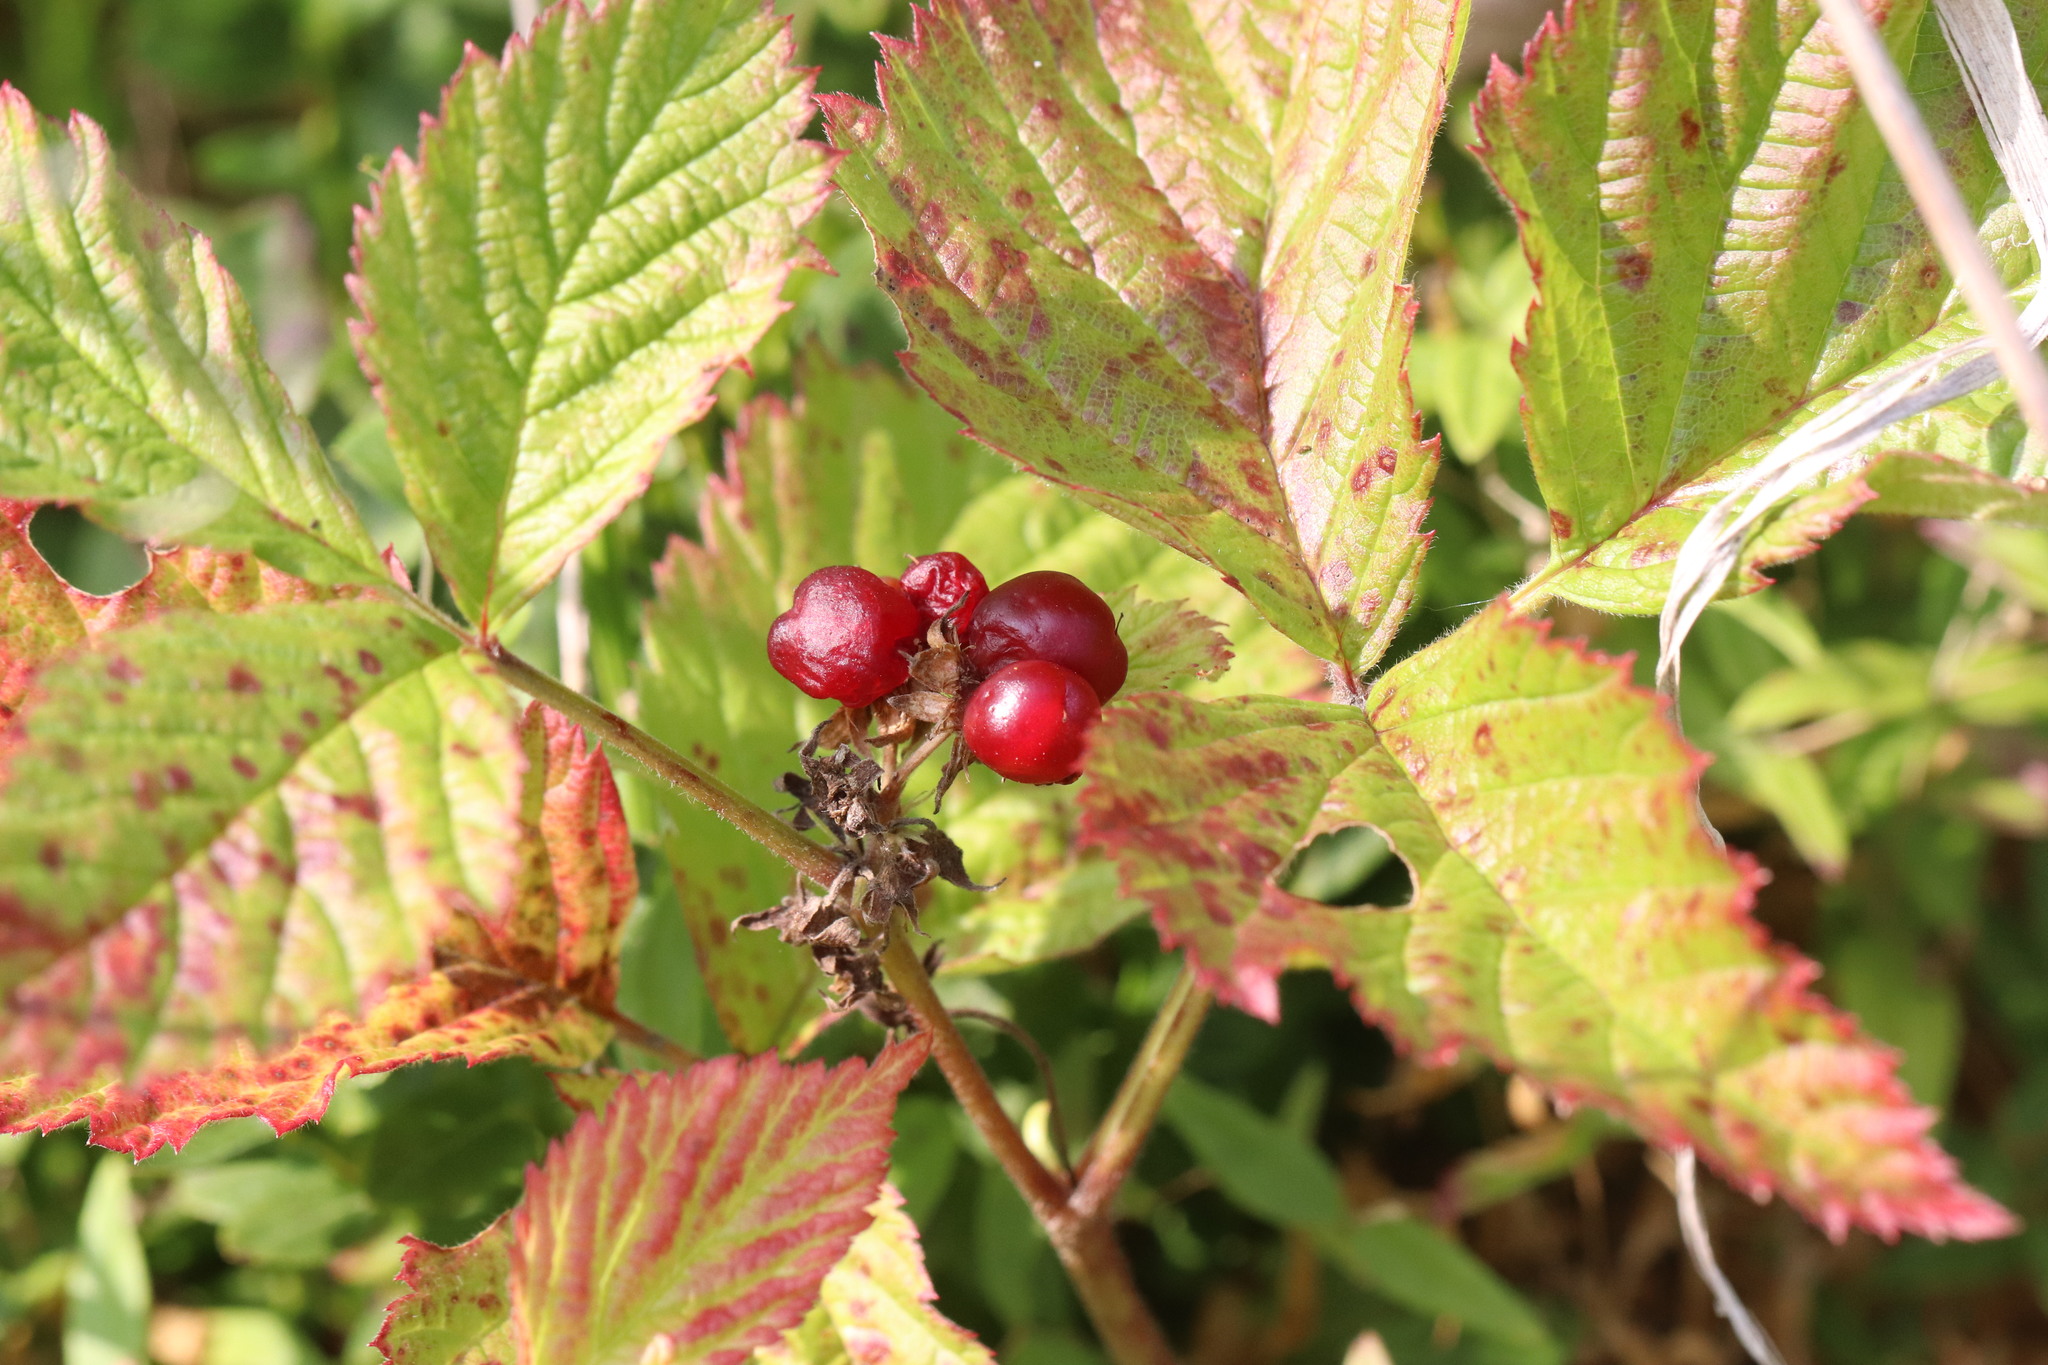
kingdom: Plantae
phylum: Tracheophyta
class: Magnoliopsida
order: Rosales
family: Rosaceae
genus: Rubus
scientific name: Rubus saxatilis
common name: Stone bramble
